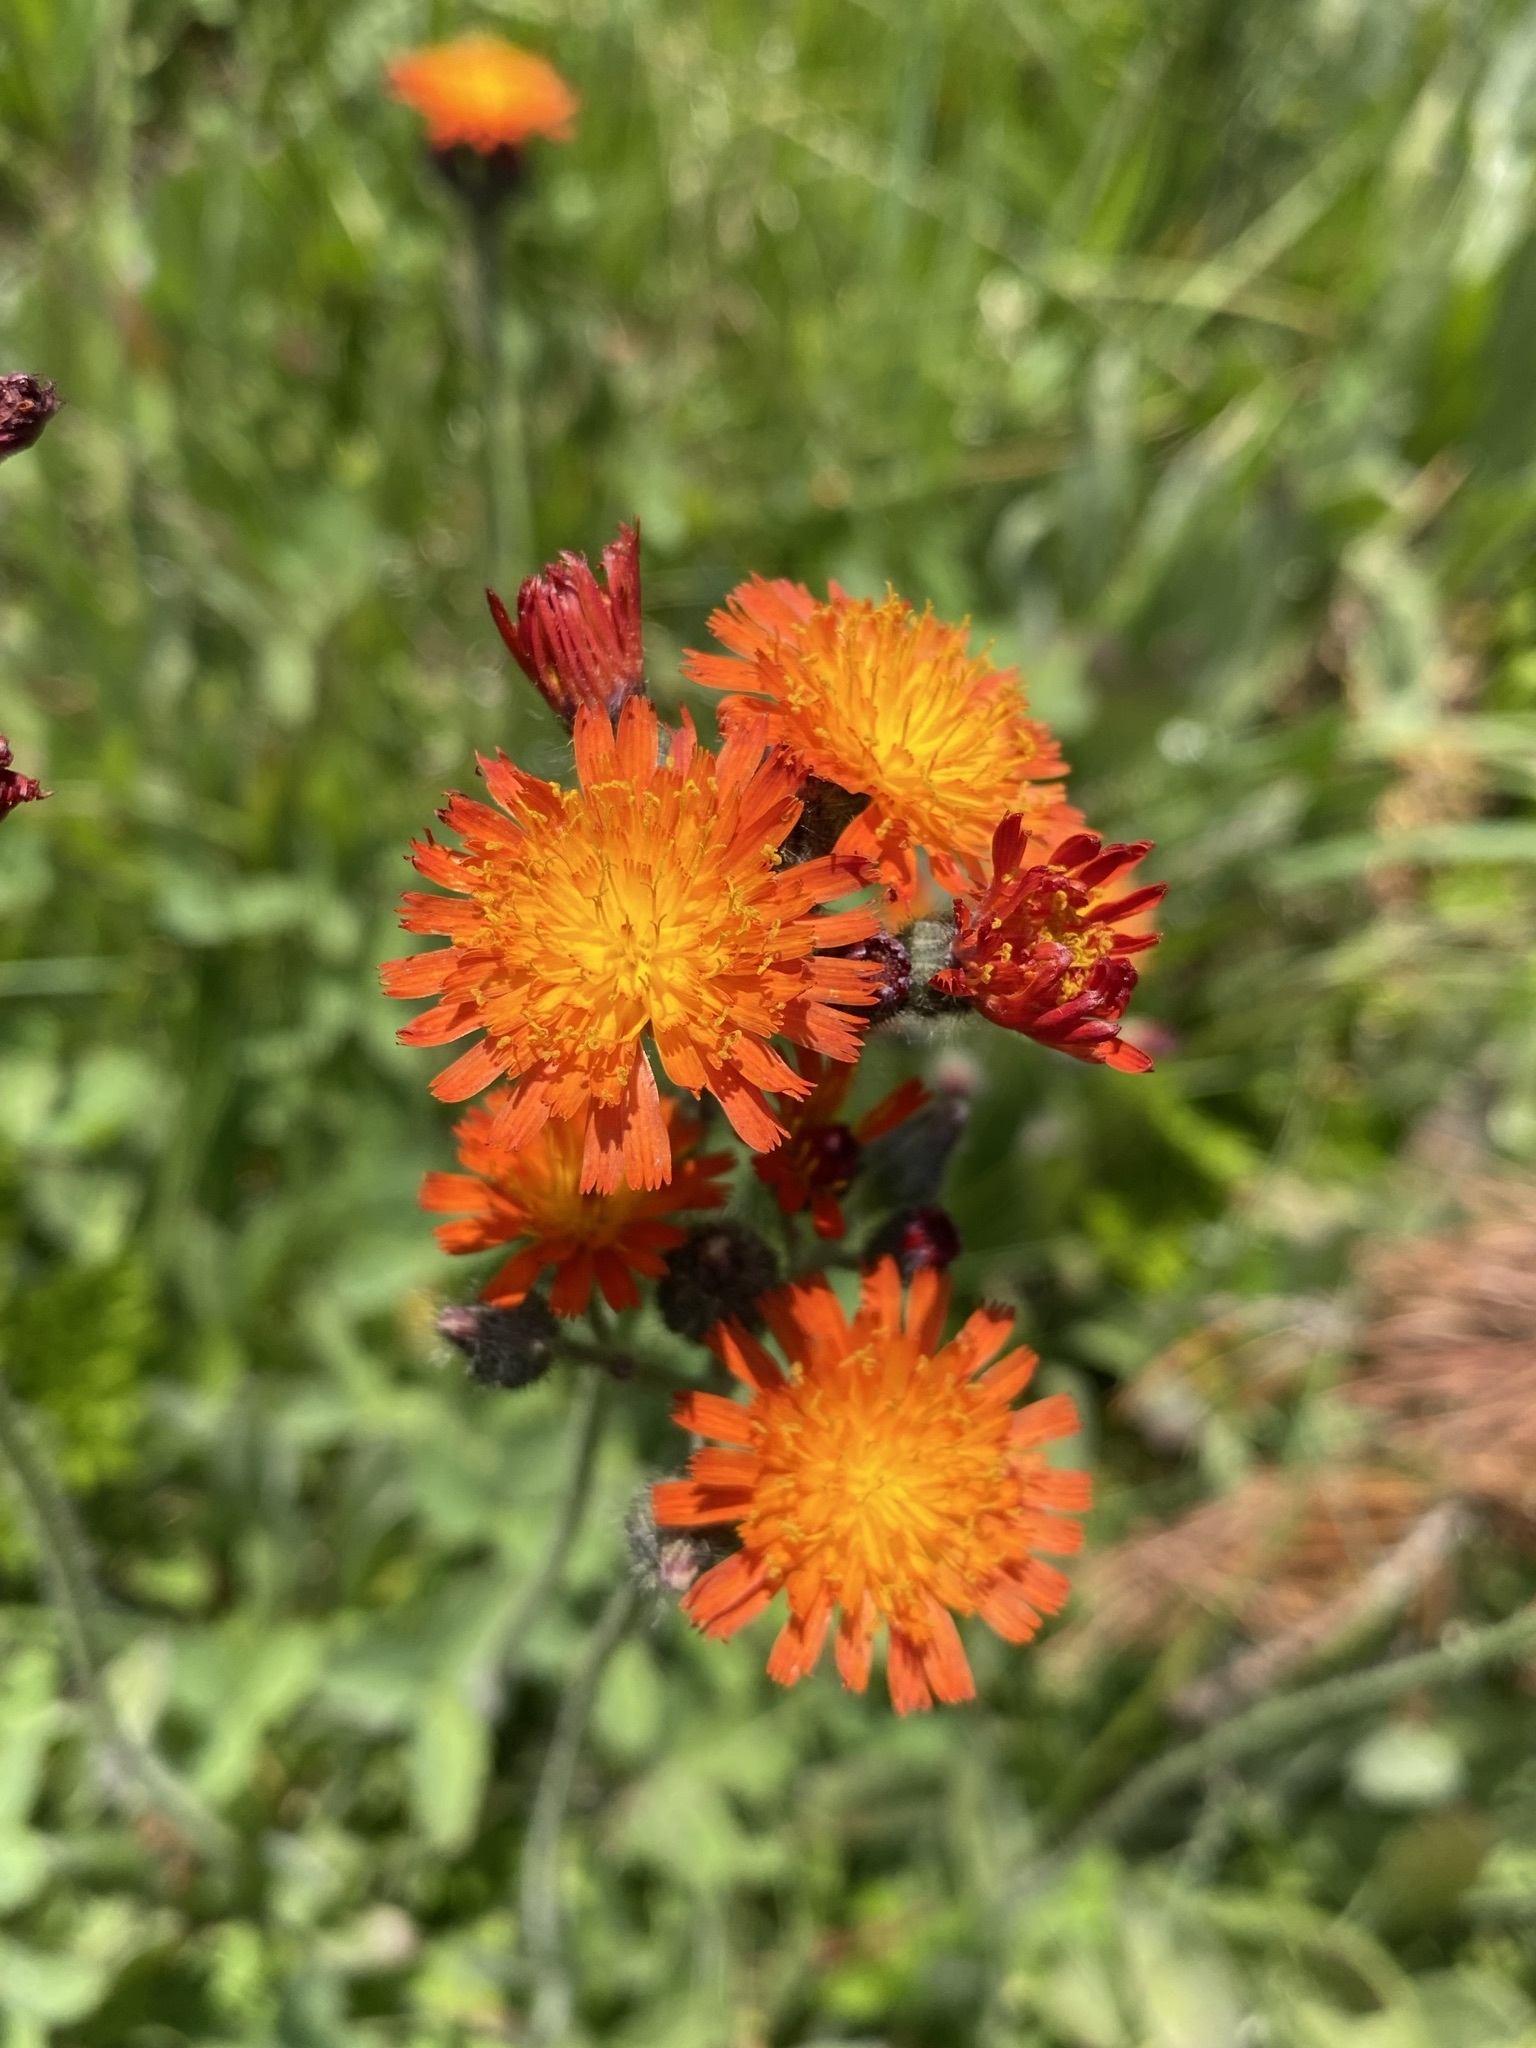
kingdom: Plantae
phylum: Tracheophyta
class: Magnoliopsida
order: Asterales
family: Asteraceae
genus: Pilosella
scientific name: Pilosella aurantiaca
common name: Fox-and-cubs
